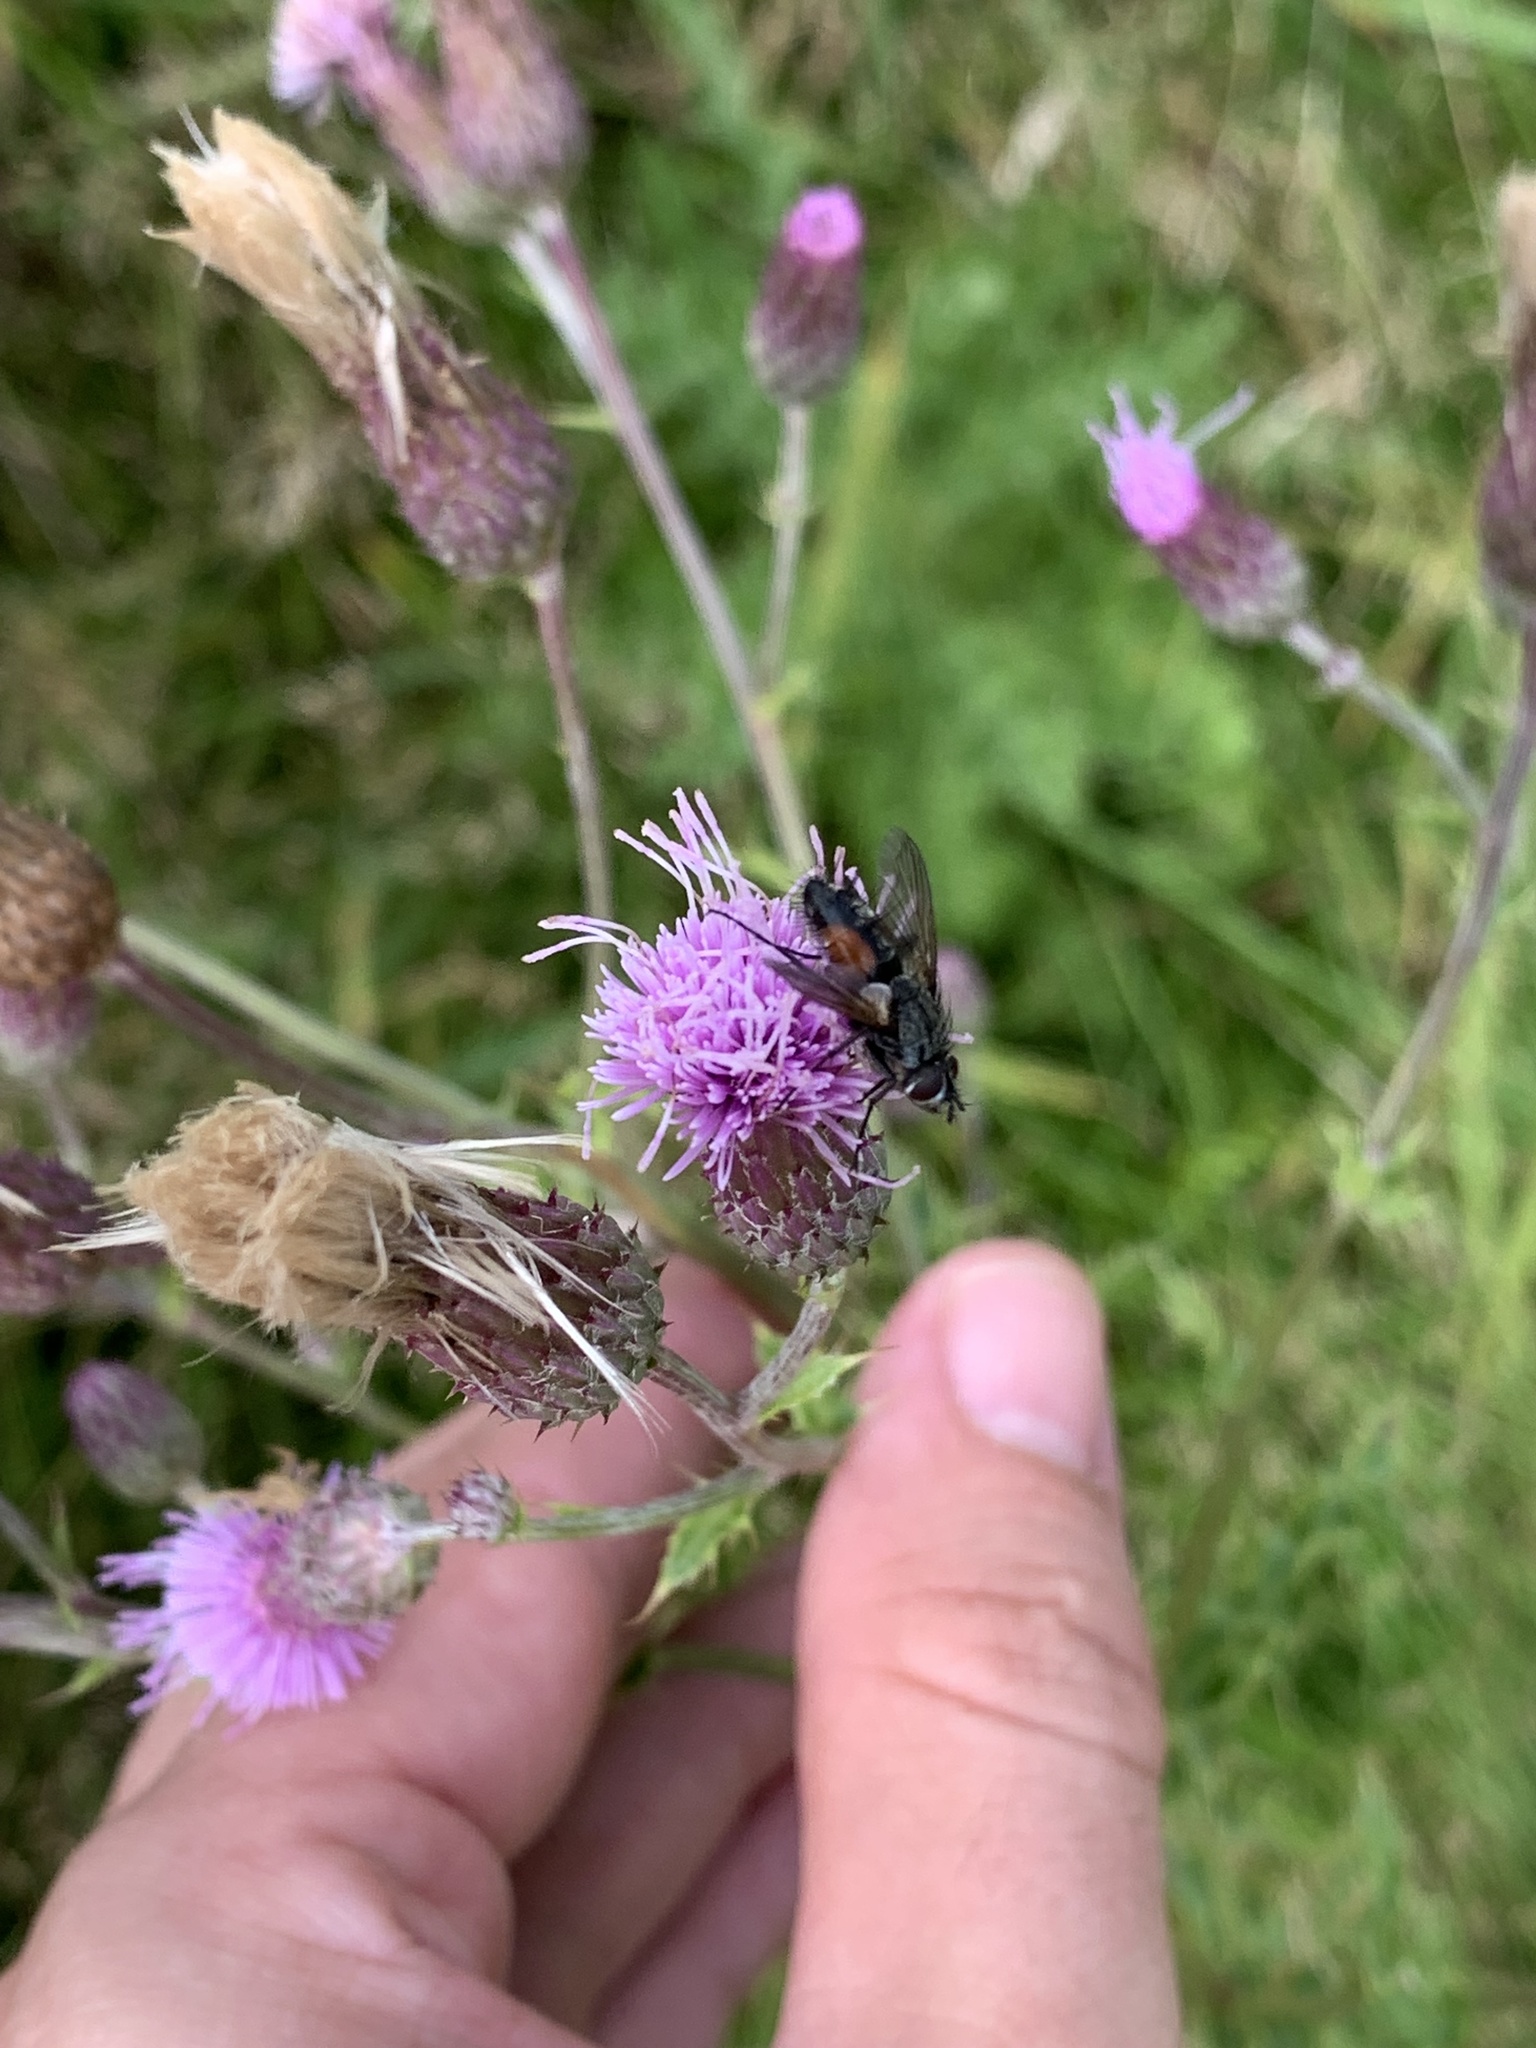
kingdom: Animalia
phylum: Arthropoda
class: Insecta
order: Diptera
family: Tachinidae
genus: Eriothrix
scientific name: Eriothrix rufomaculatus
